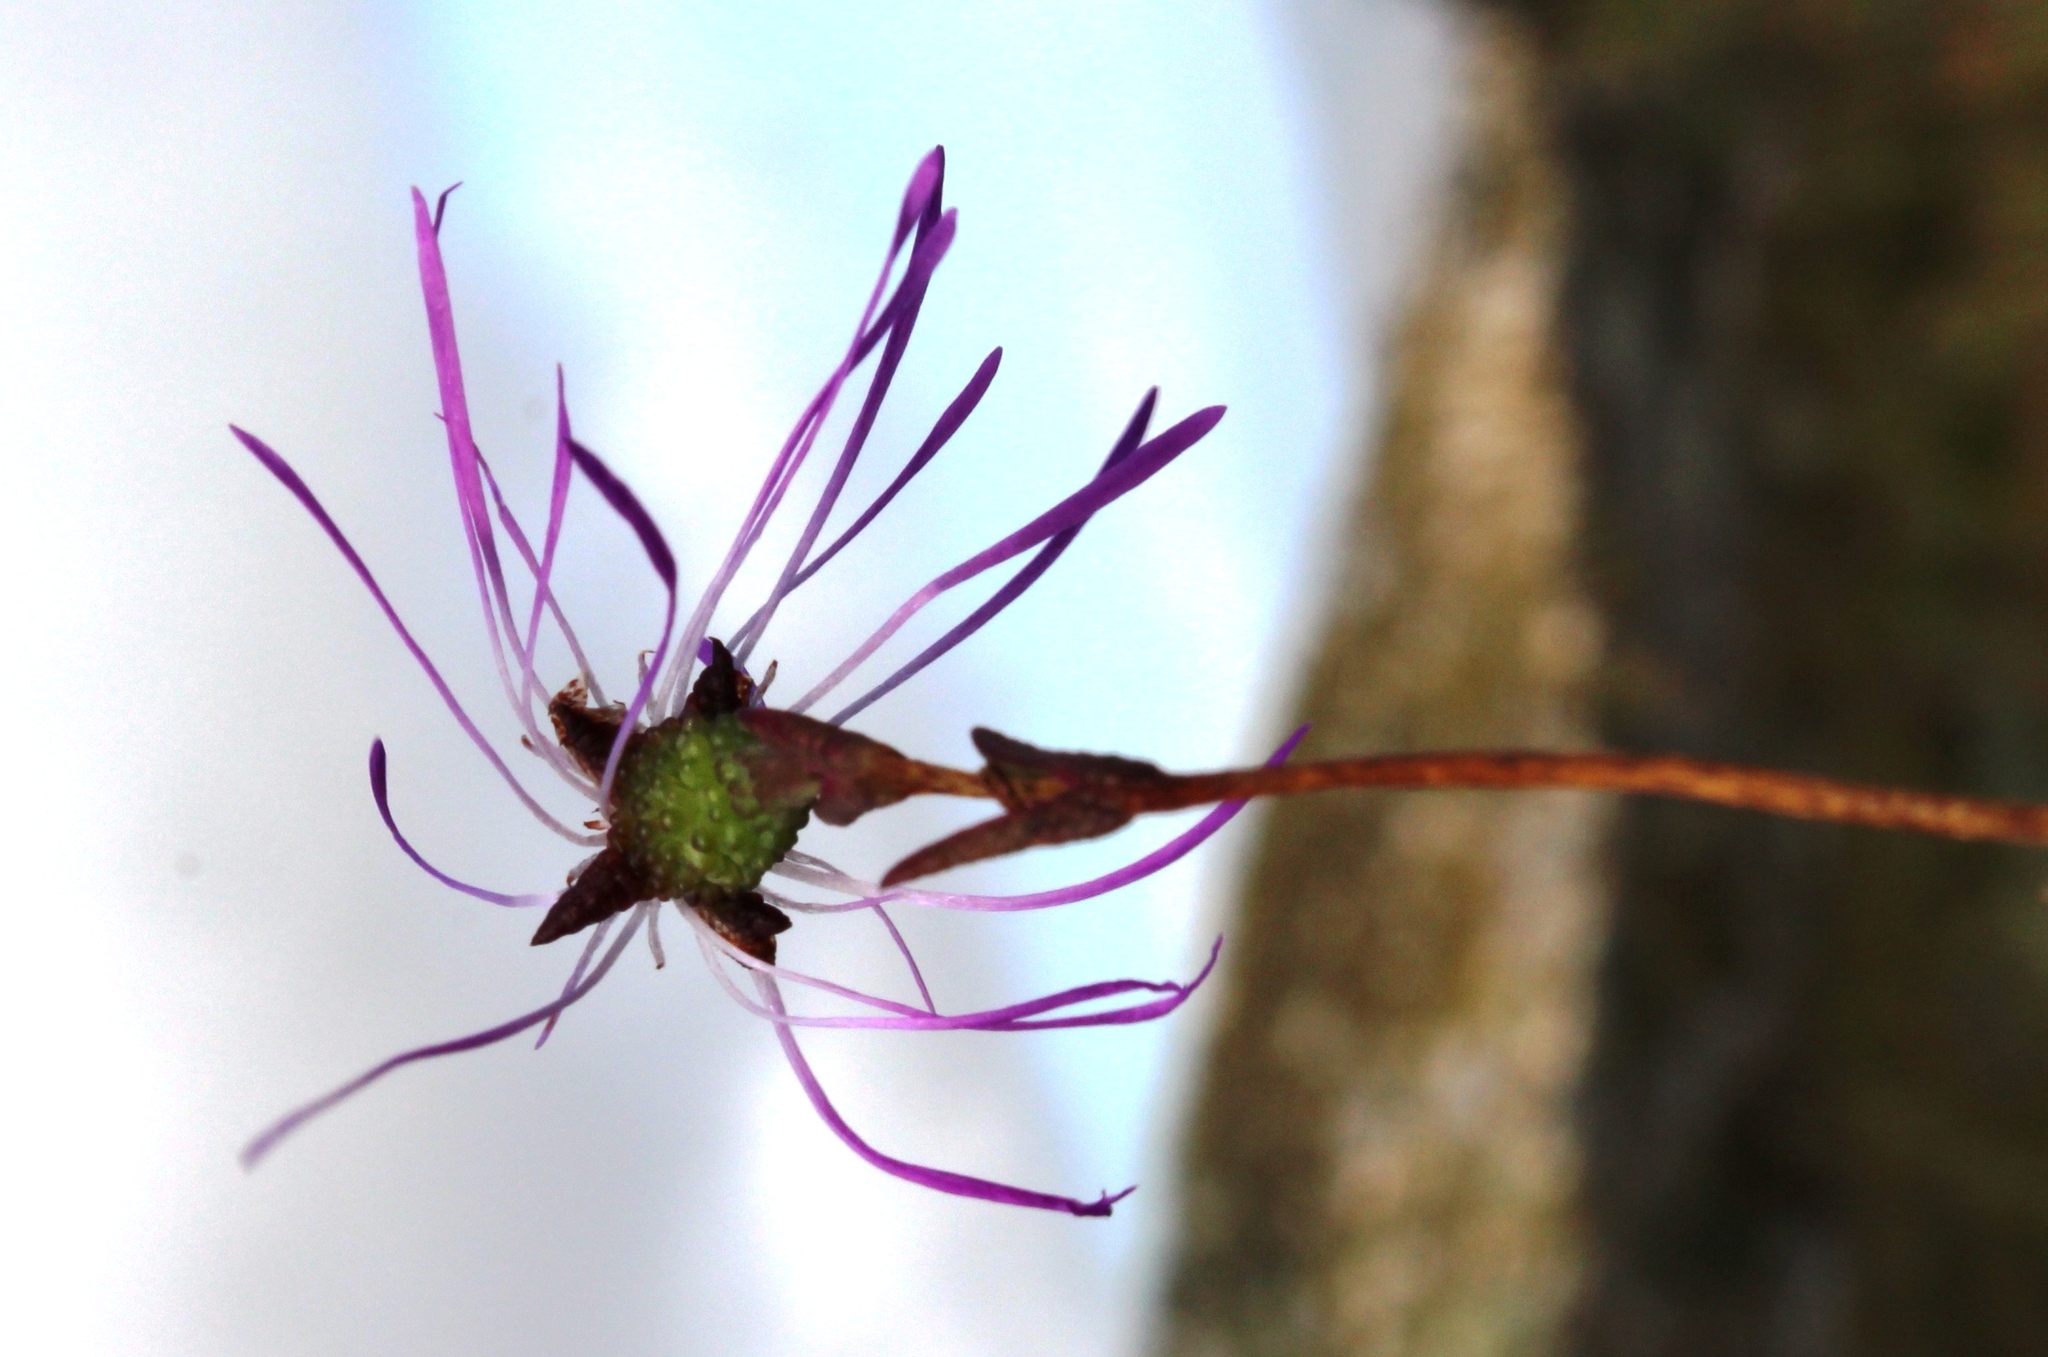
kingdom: Plantae
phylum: Tracheophyta
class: Magnoliopsida
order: Caryophyllales
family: Aizoaceae
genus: Erepsia
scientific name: Erepsia aspera
